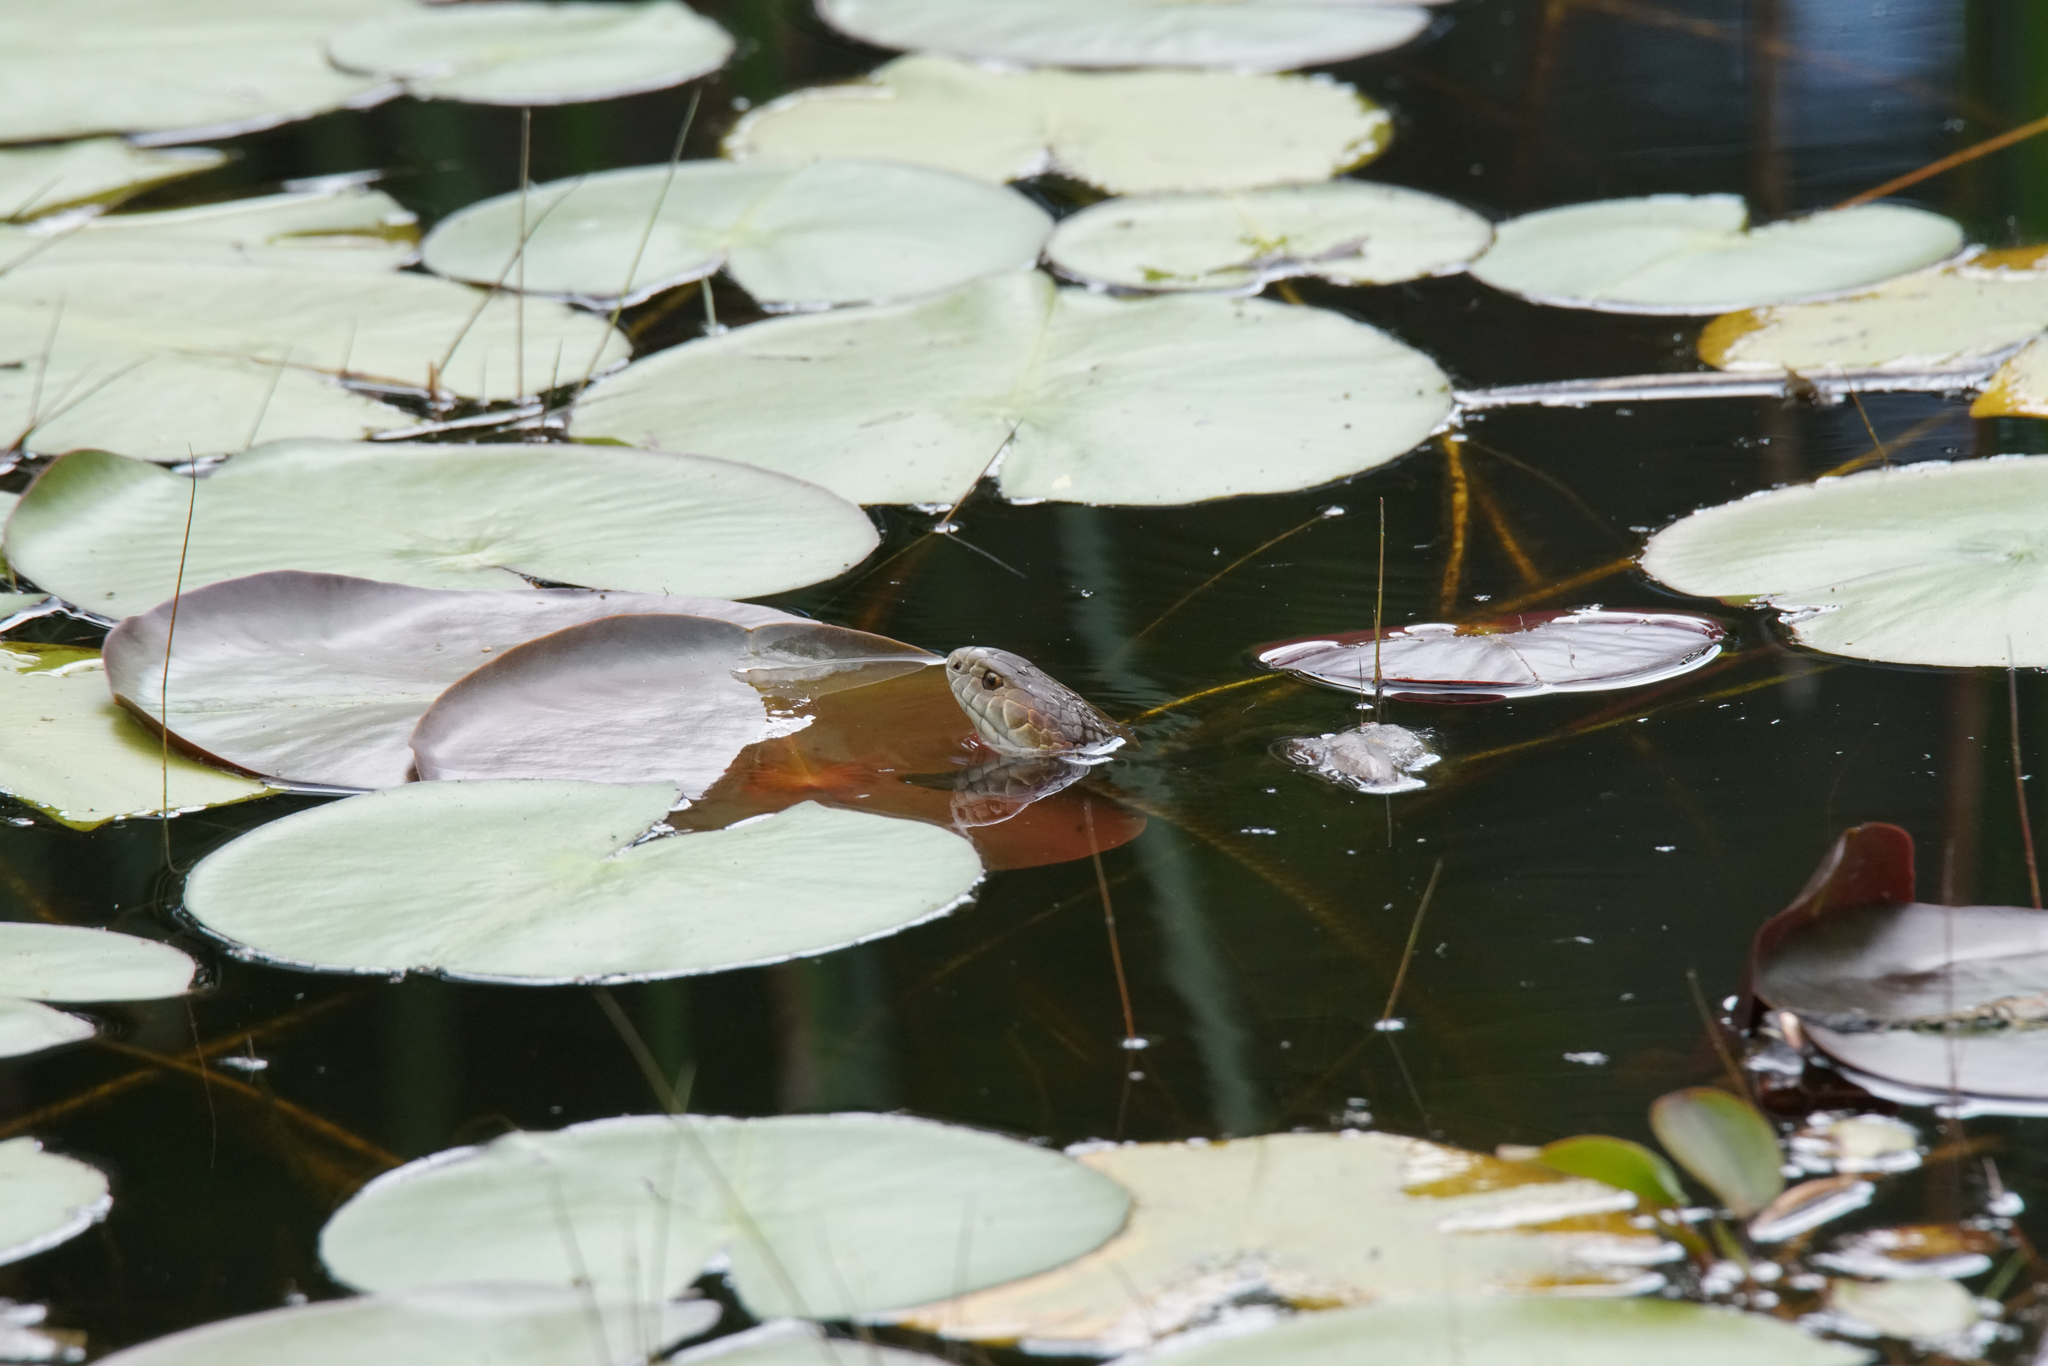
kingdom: Animalia
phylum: Chordata
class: Squamata
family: Elapidae
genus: Austrelaps
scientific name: Austrelaps superbus
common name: Copperhead snake
